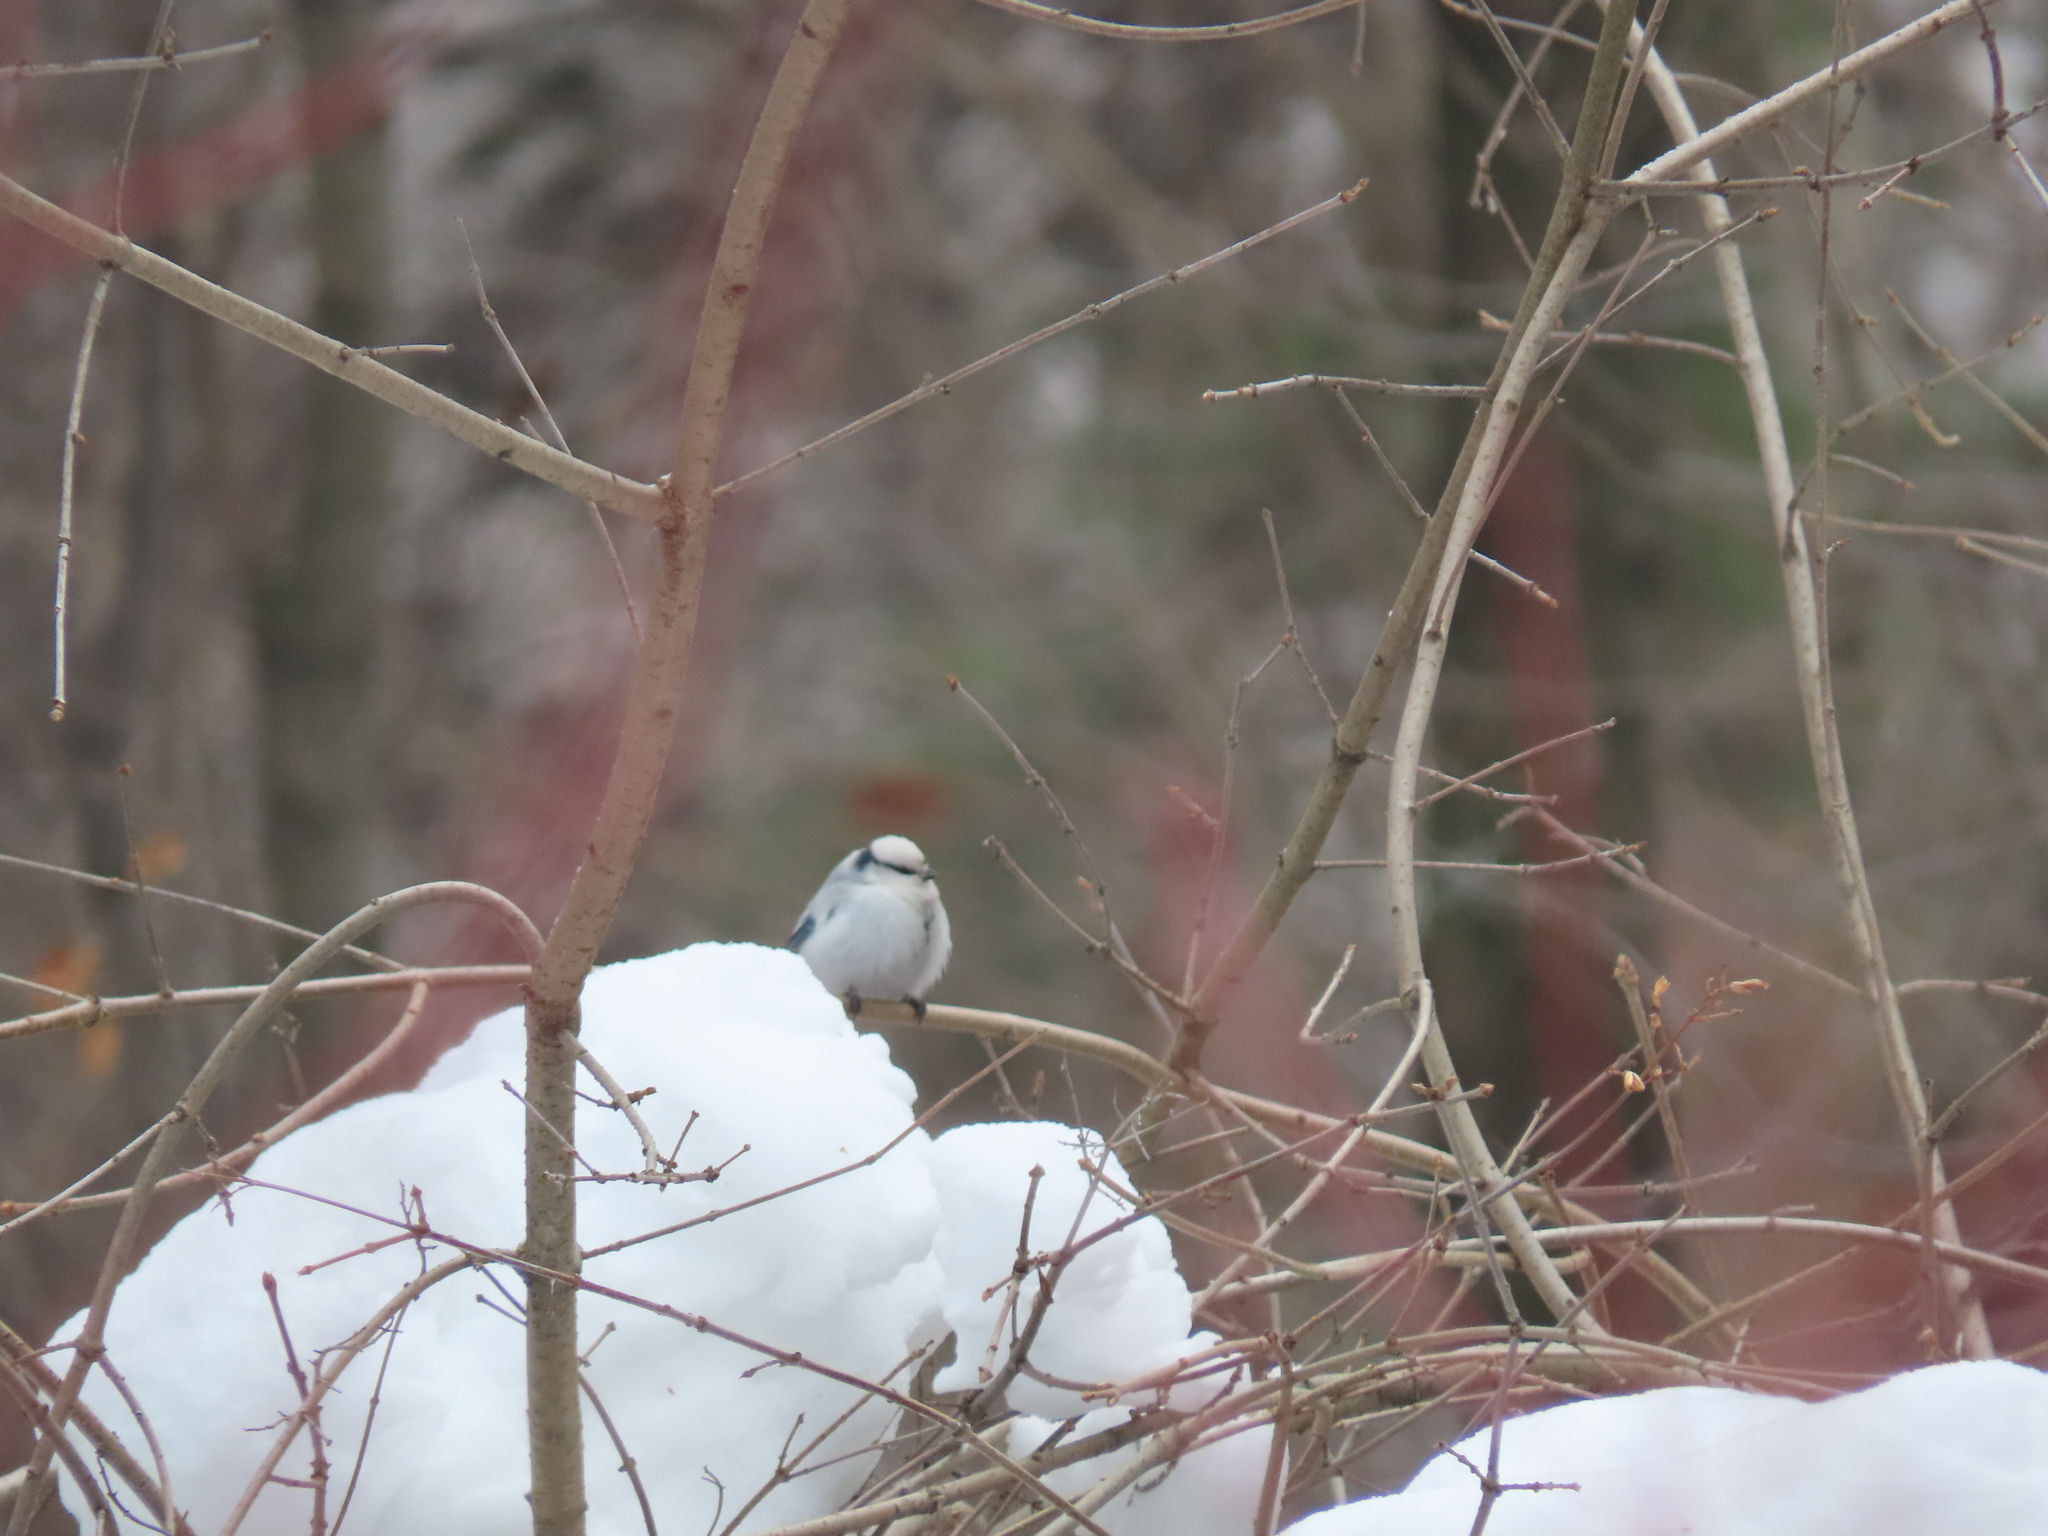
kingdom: Animalia
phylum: Chordata
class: Aves
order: Passeriformes
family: Paridae
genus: Cyanistes
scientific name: Cyanistes cyanus
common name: Azure tit
